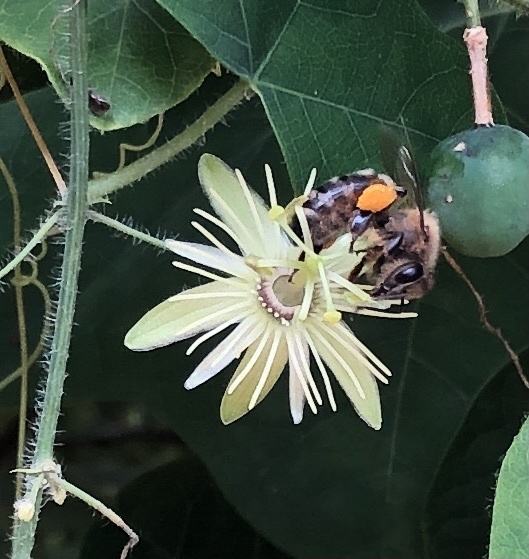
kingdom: Animalia
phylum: Arthropoda
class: Insecta
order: Hymenoptera
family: Apidae
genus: Apis
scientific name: Apis mellifera
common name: Honey bee
